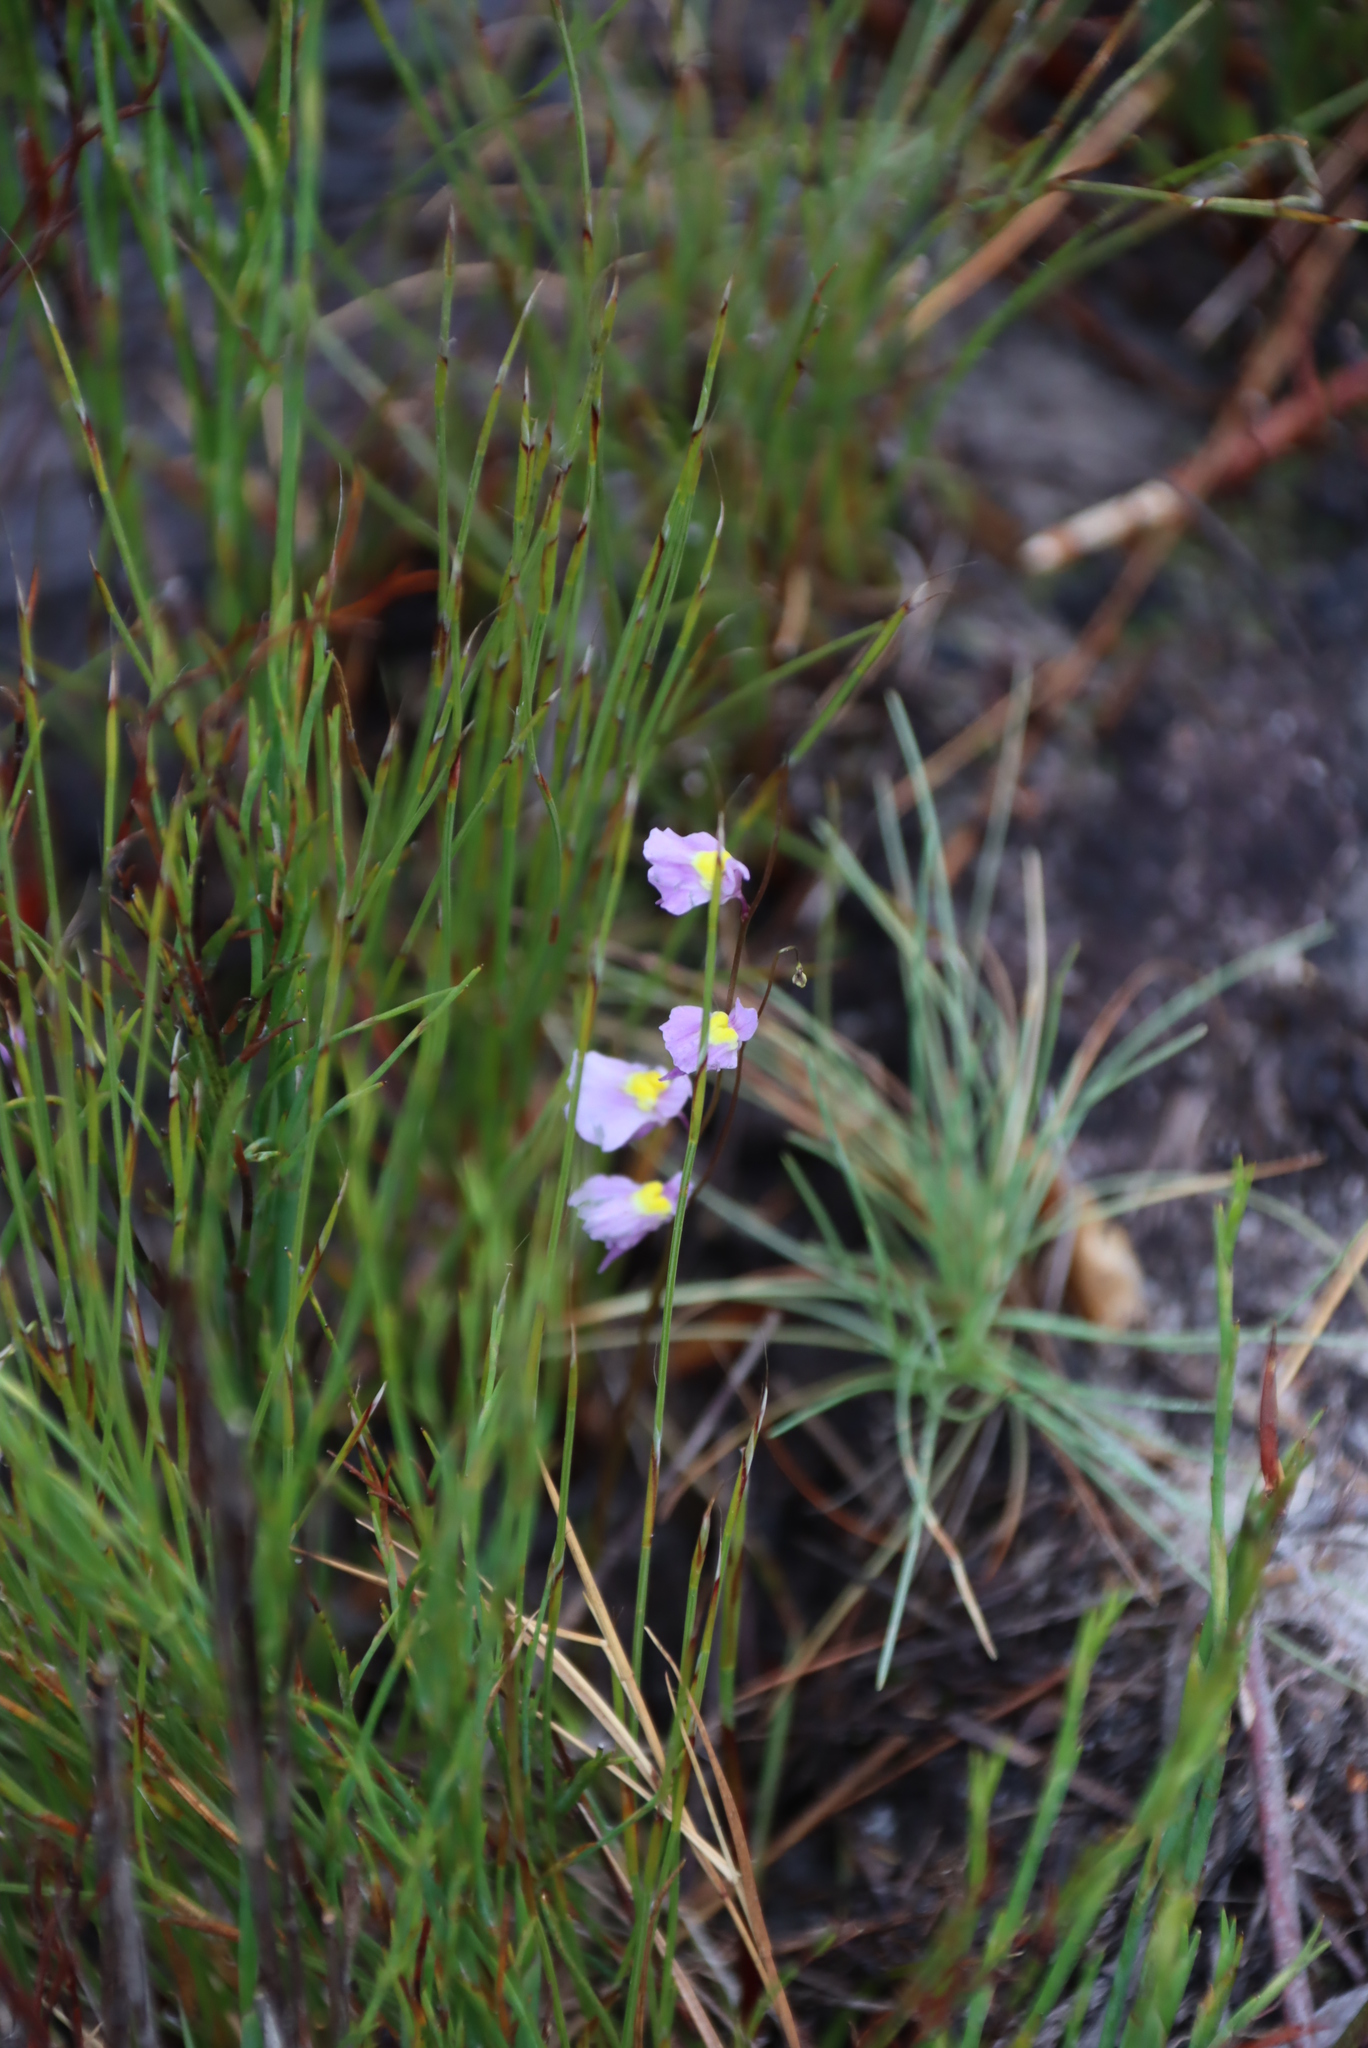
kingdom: Plantae
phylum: Tracheophyta
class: Magnoliopsida
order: Lamiales
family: Lentibulariaceae
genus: Utricularia
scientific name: Utricularia bisquamata
